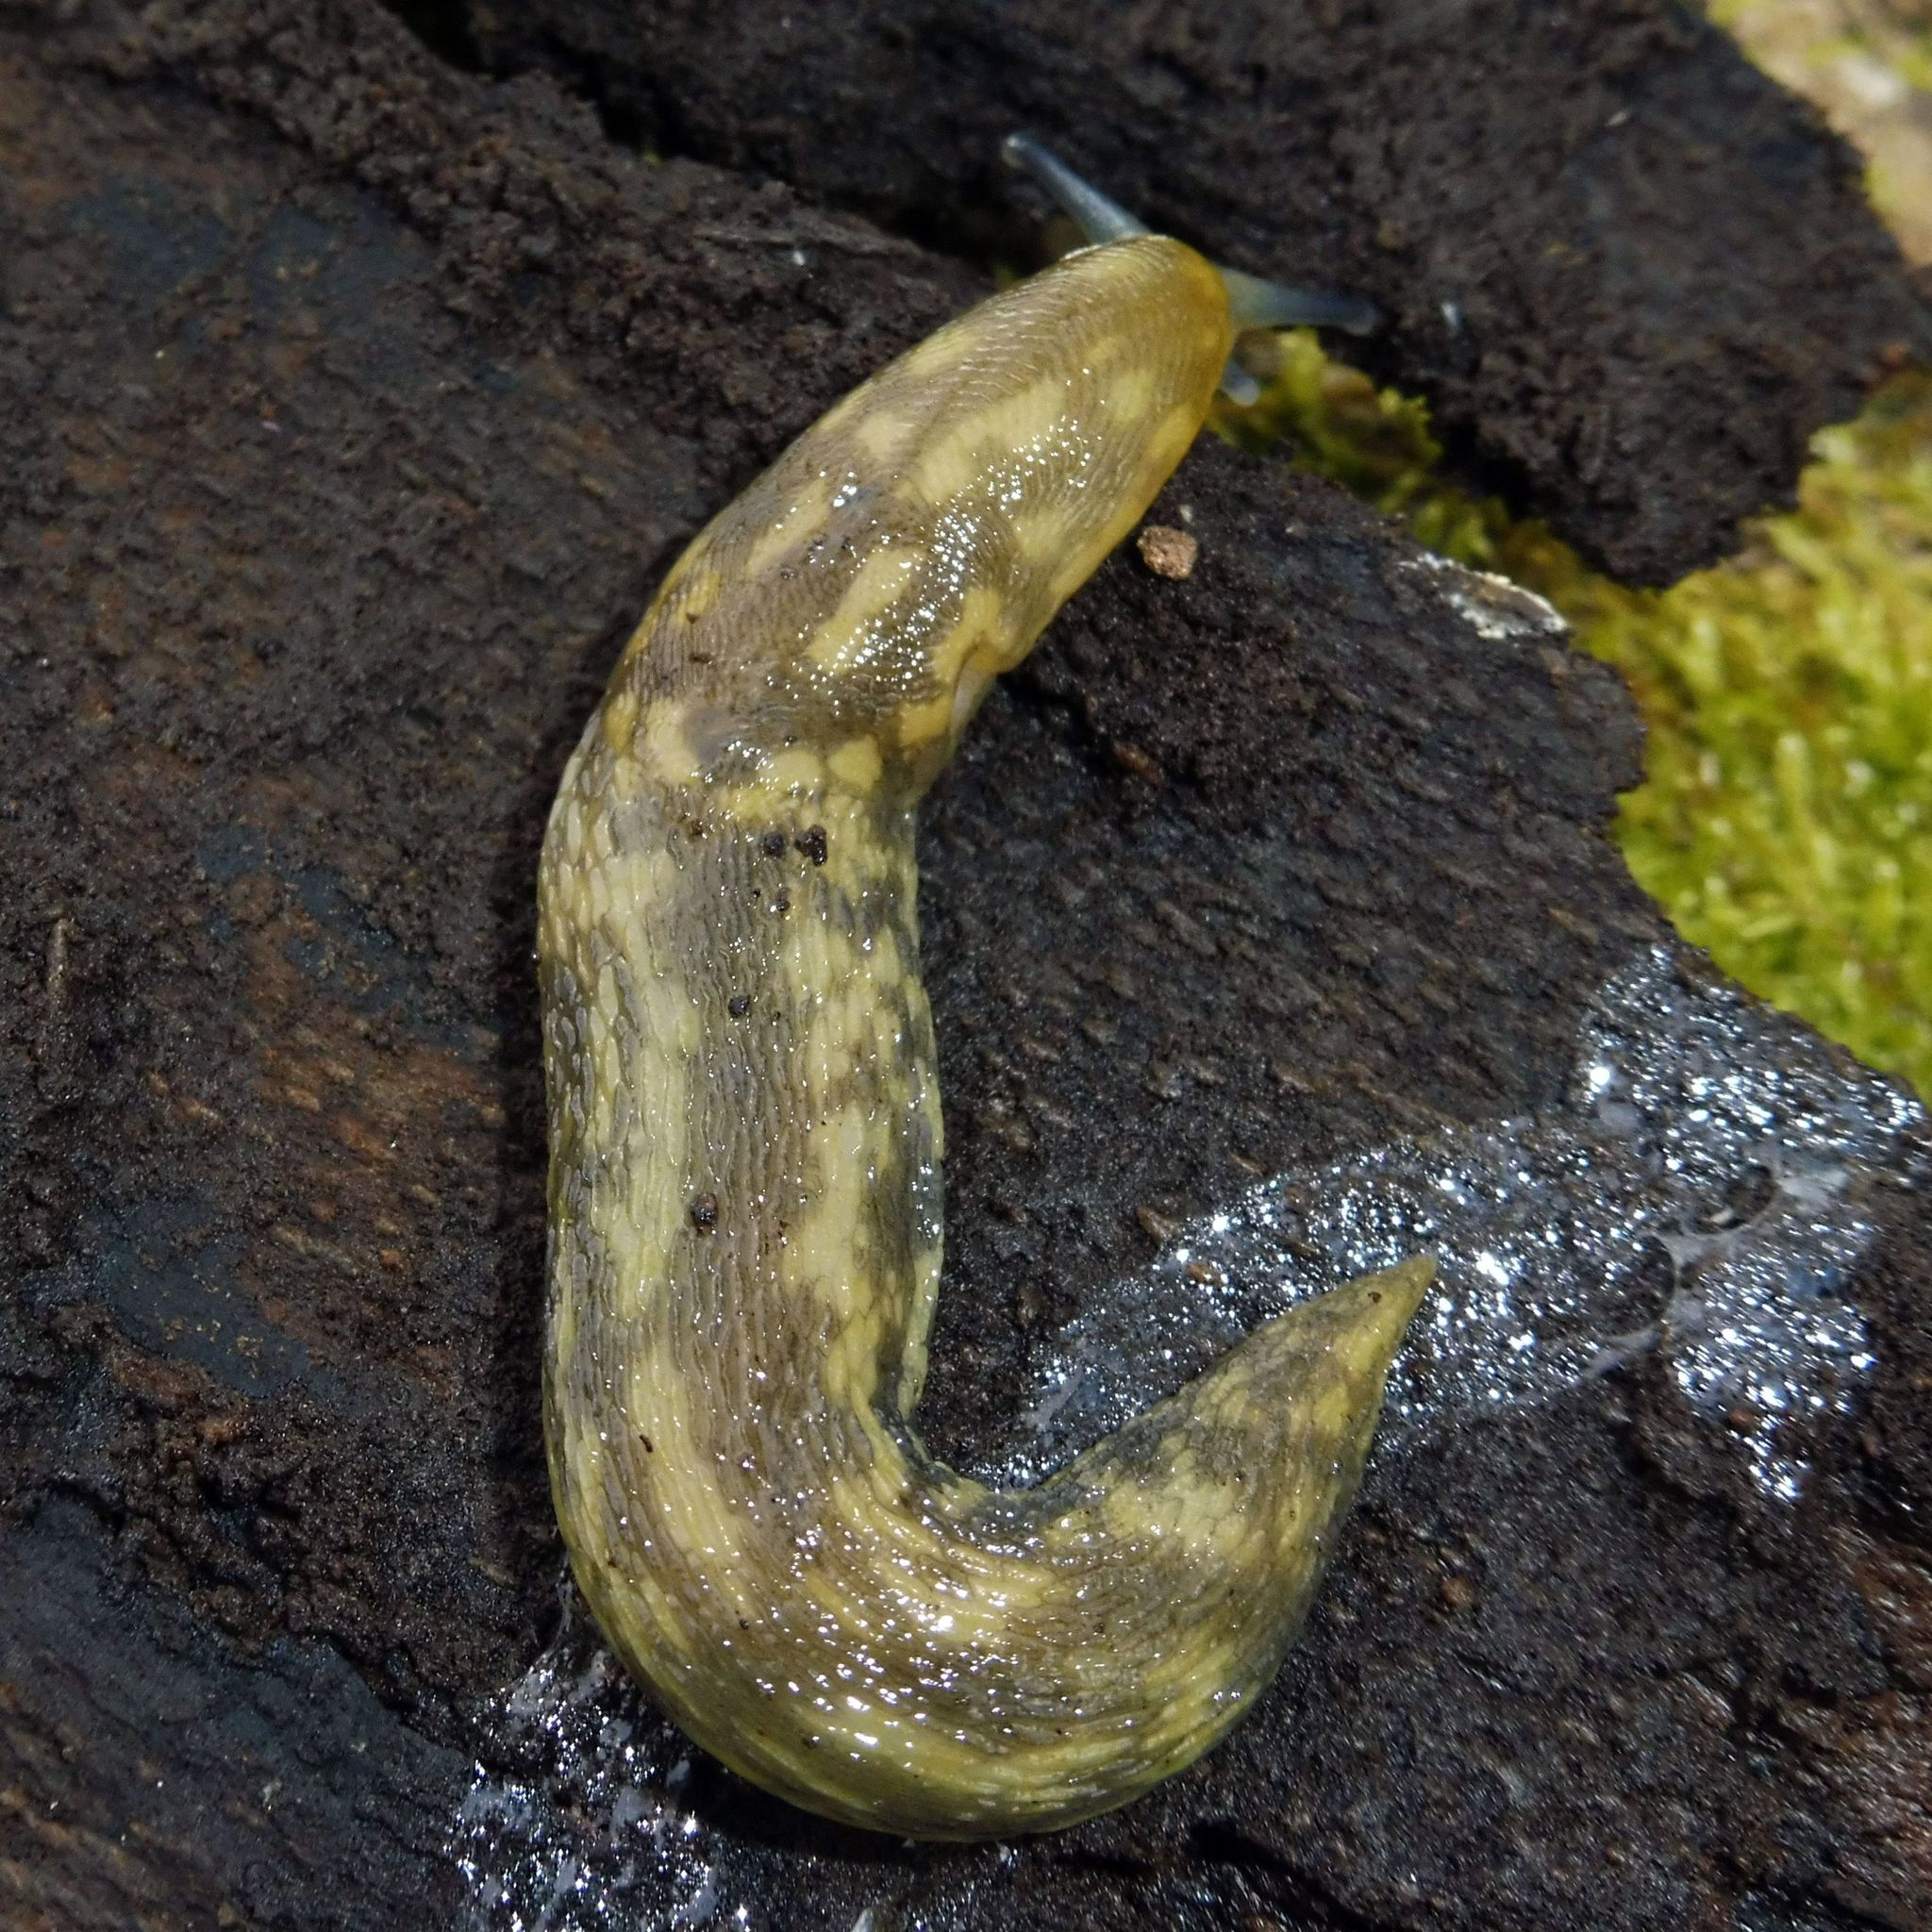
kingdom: Animalia
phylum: Mollusca
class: Gastropoda
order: Stylommatophora
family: Limacidae
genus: Limacus
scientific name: Limacus maculatus
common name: Irish yellow slug
